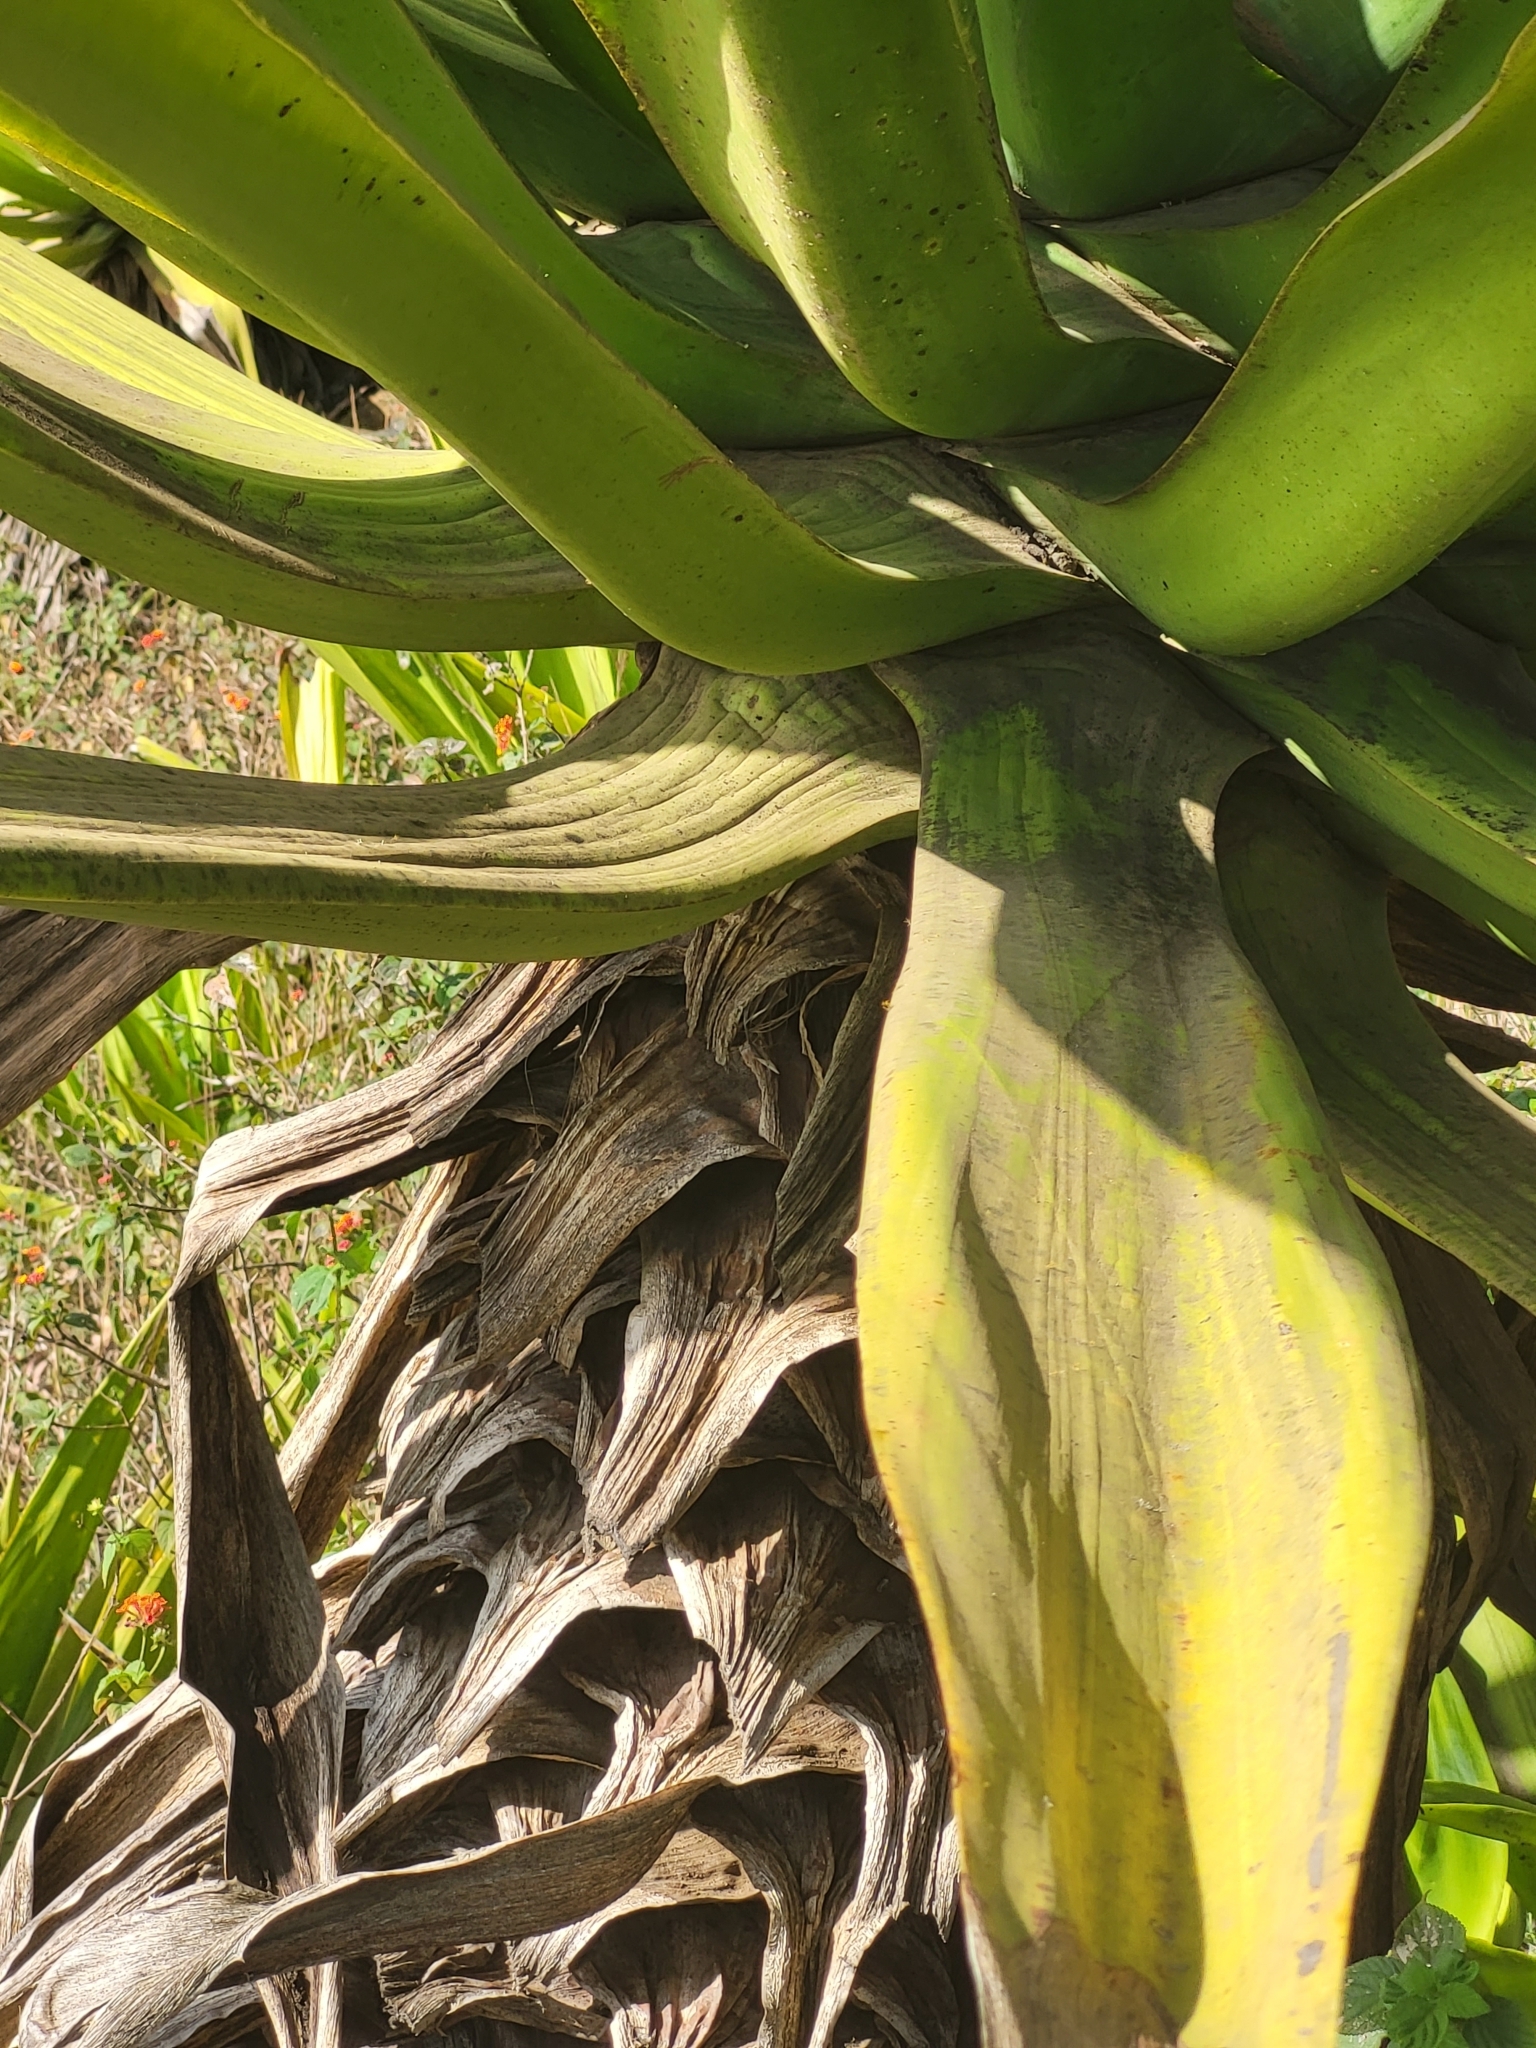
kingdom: Plantae
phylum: Tracheophyta
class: Liliopsida
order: Asparagales
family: Asparagaceae
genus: Furcraea
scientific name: Furcraea foetida
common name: Mauritius hemp
